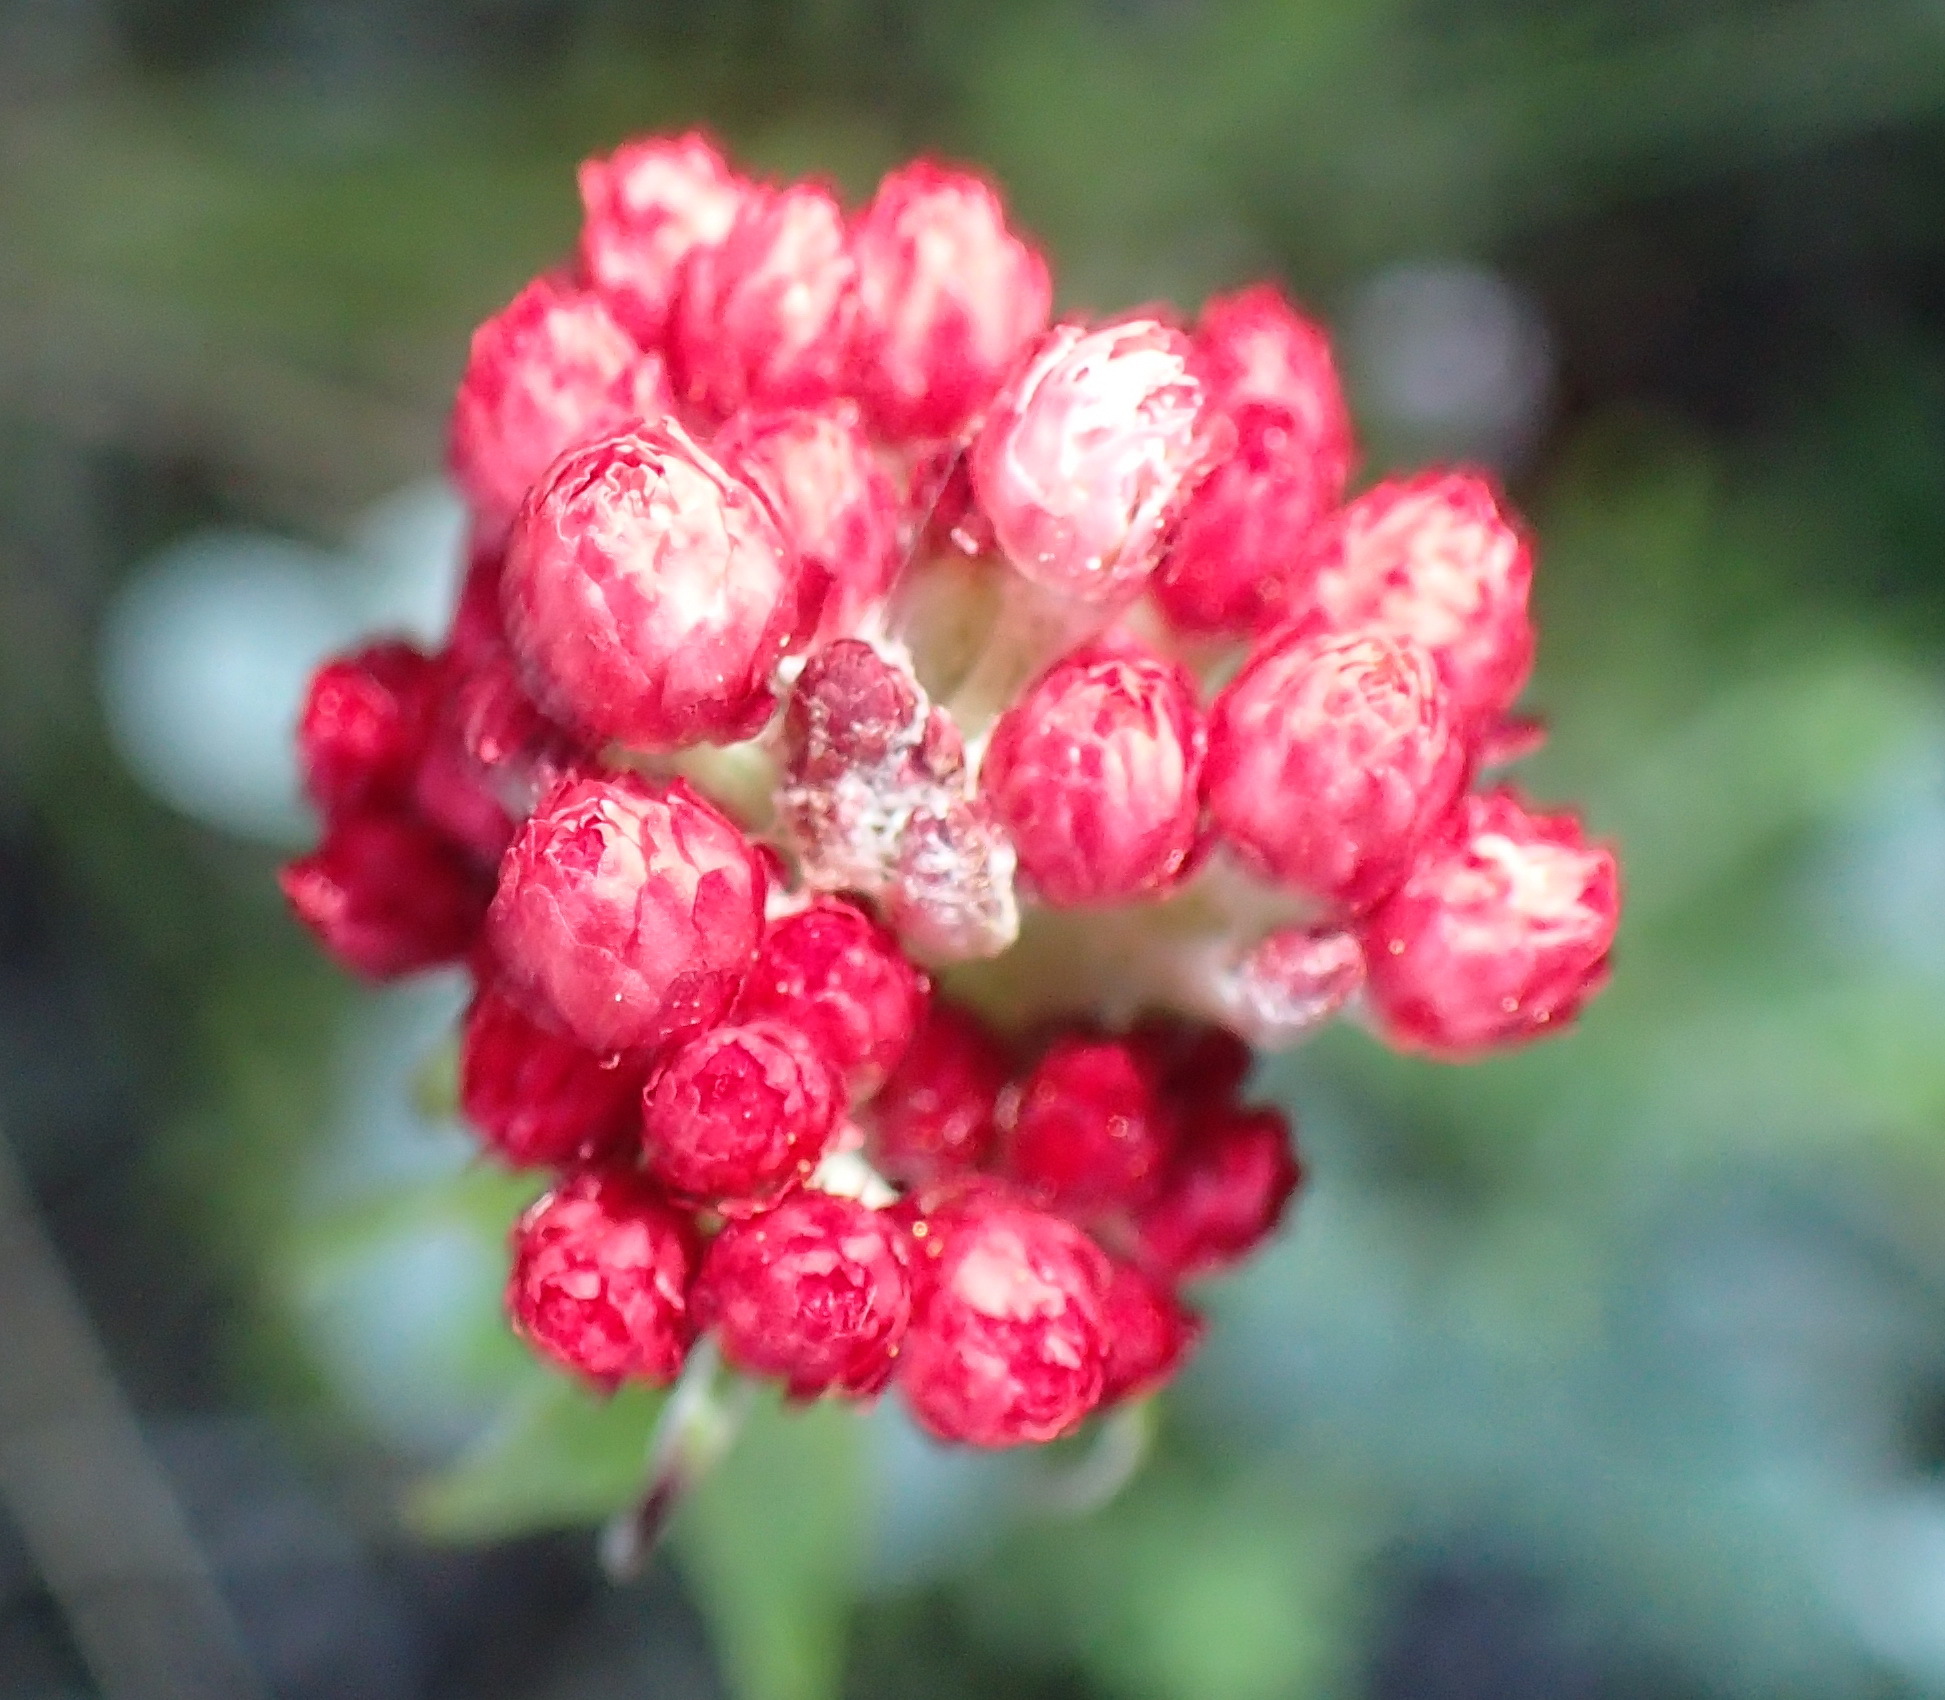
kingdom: Plantae
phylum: Tracheophyta
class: Magnoliopsida
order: Asterales
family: Asteraceae
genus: Helichrysum
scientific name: Helichrysum felinum
